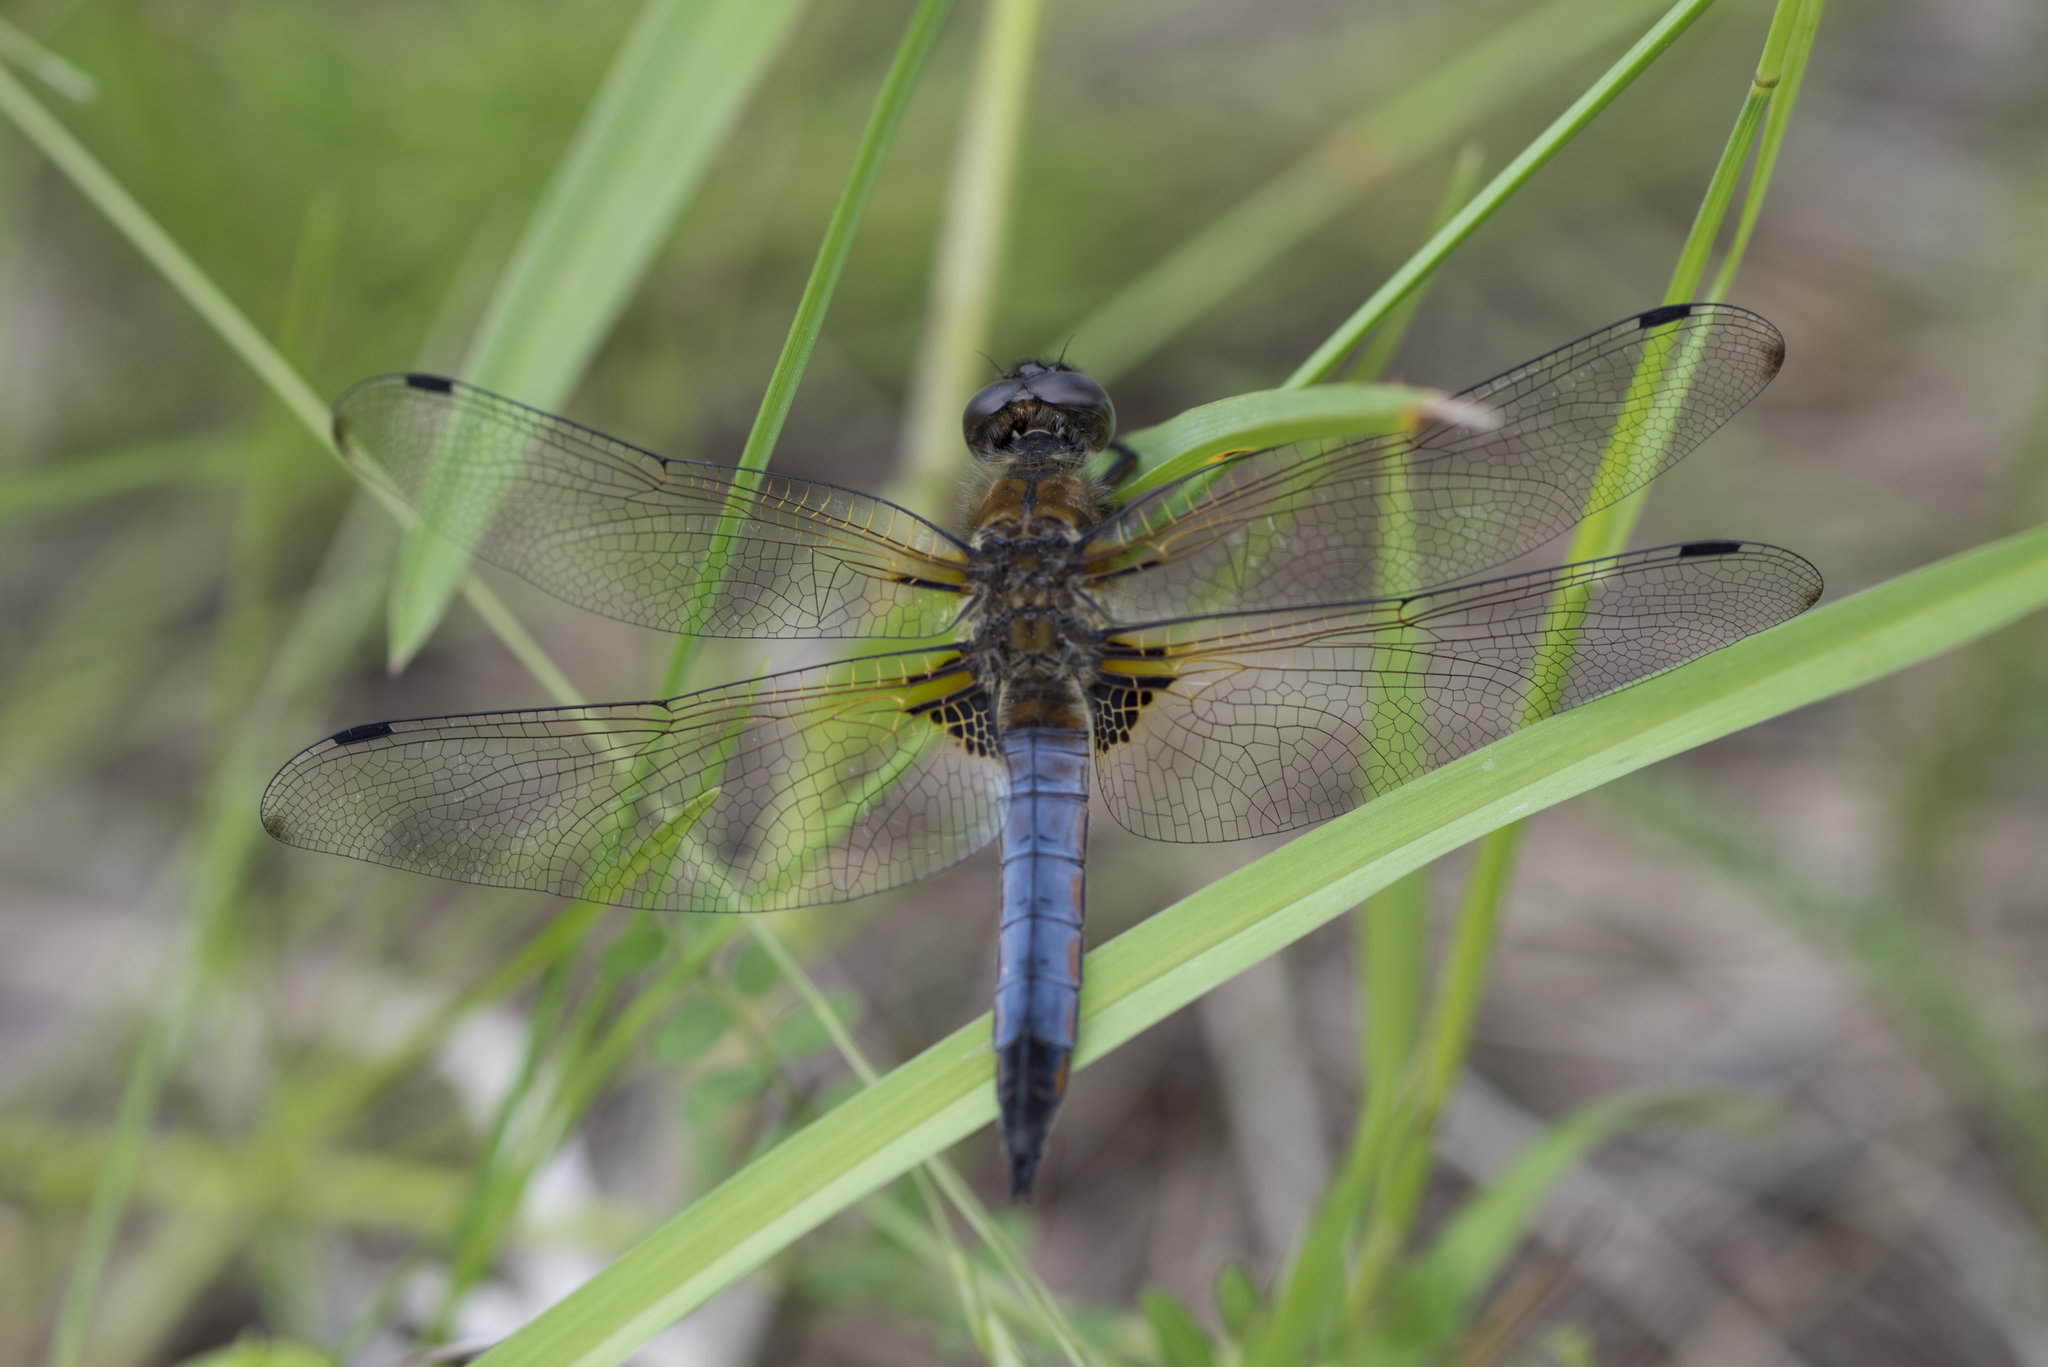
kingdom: Animalia
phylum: Arthropoda
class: Insecta
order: Odonata
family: Libellulidae
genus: Libellula
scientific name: Libellula fulva
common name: Blue chaser
